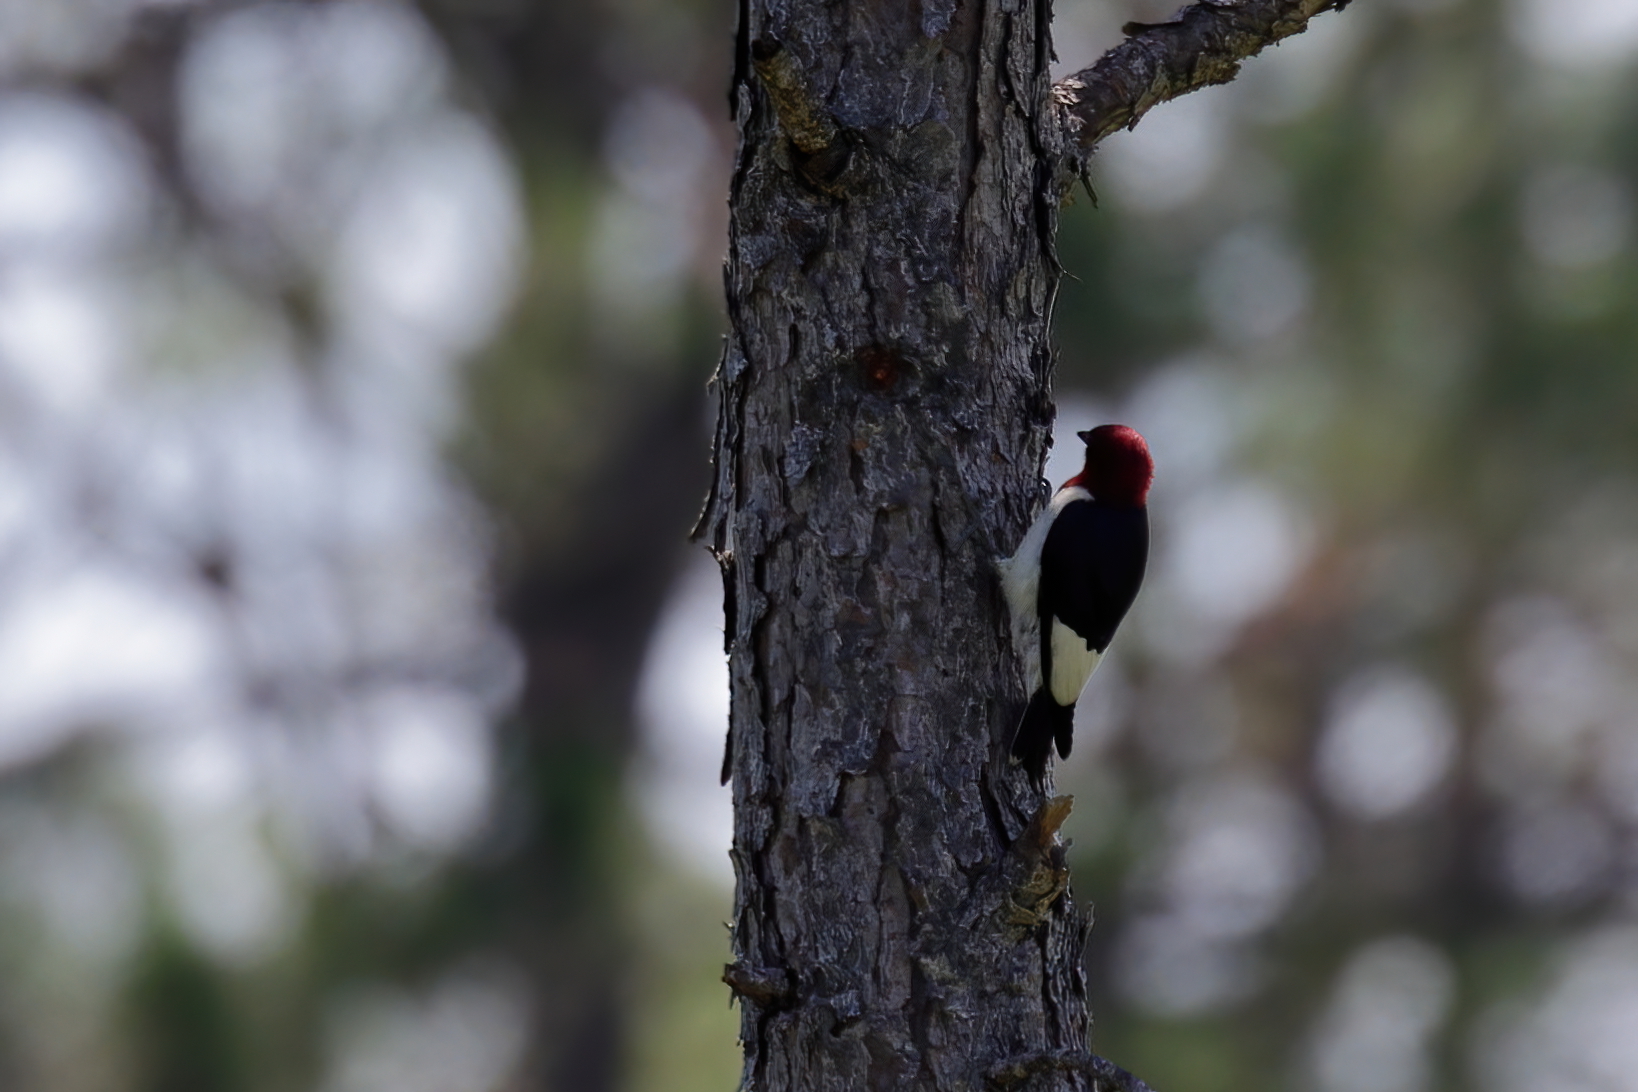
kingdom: Animalia
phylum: Chordata
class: Aves
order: Piciformes
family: Picidae
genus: Melanerpes
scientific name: Melanerpes erythrocephalus
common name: Red-headed woodpecker
